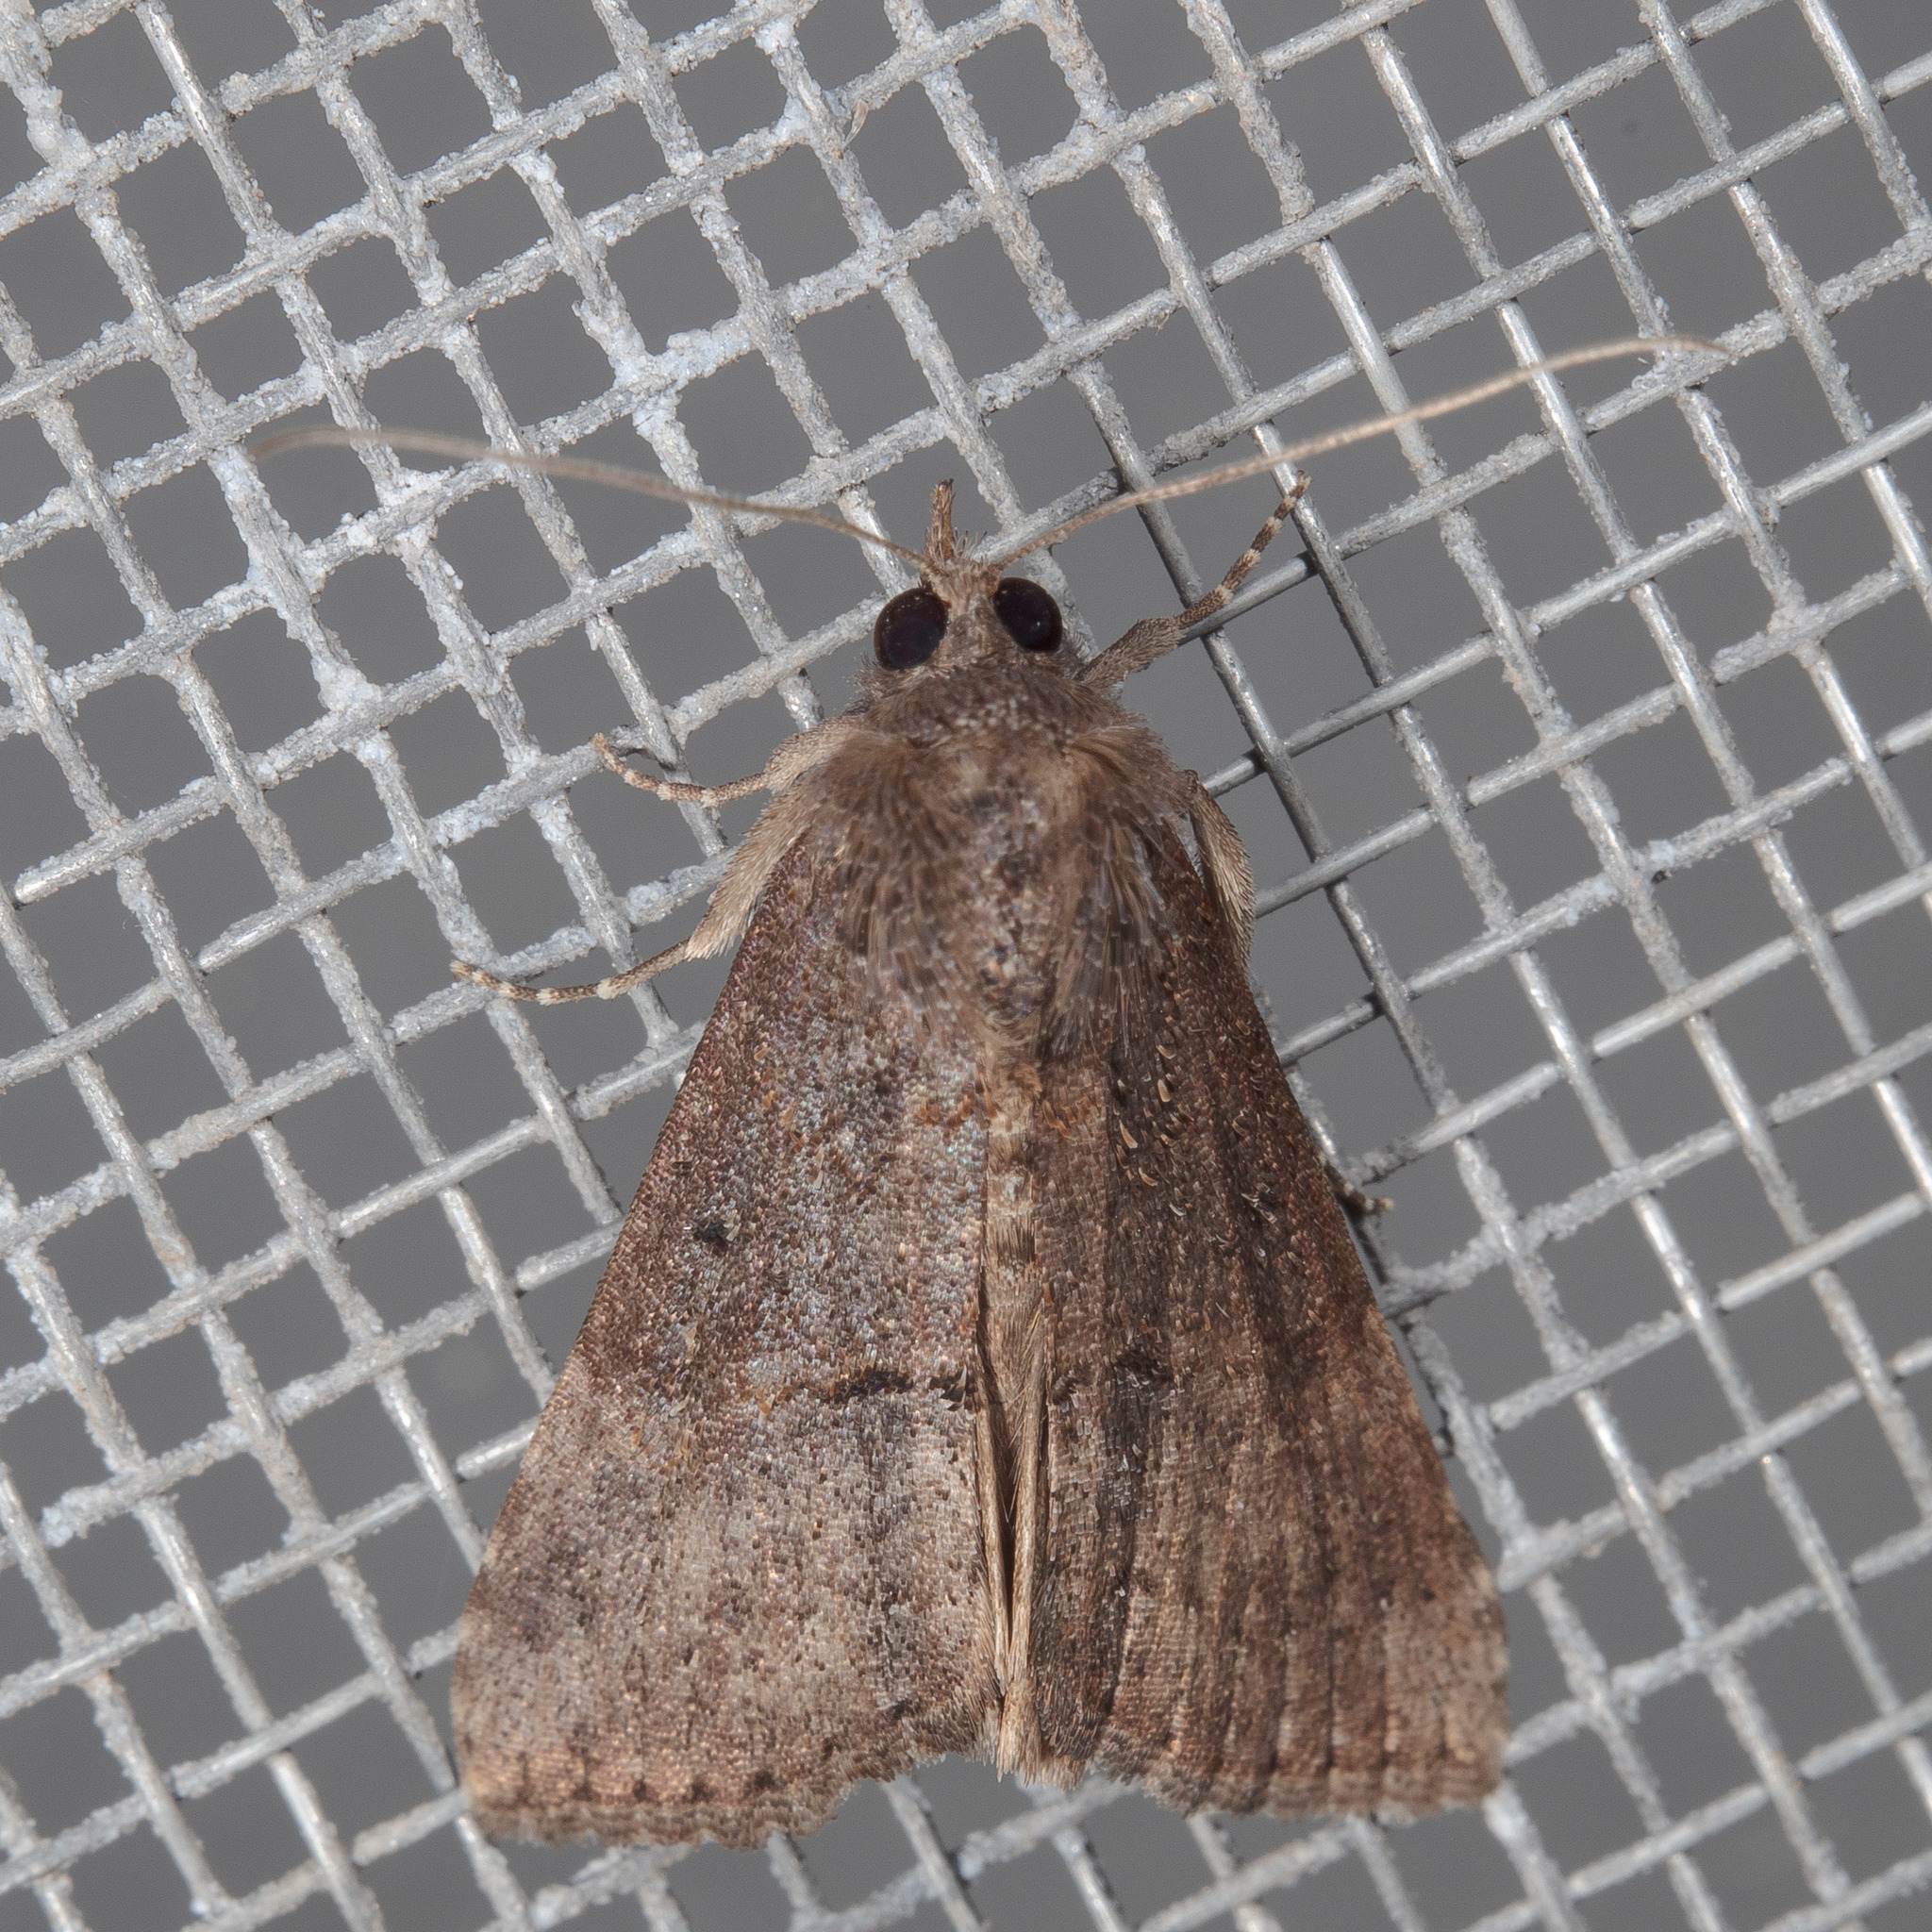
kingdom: Animalia
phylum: Arthropoda
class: Insecta
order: Lepidoptera
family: Erebidae
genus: Hypena
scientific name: Hypena scabra
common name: Green cloverworm
